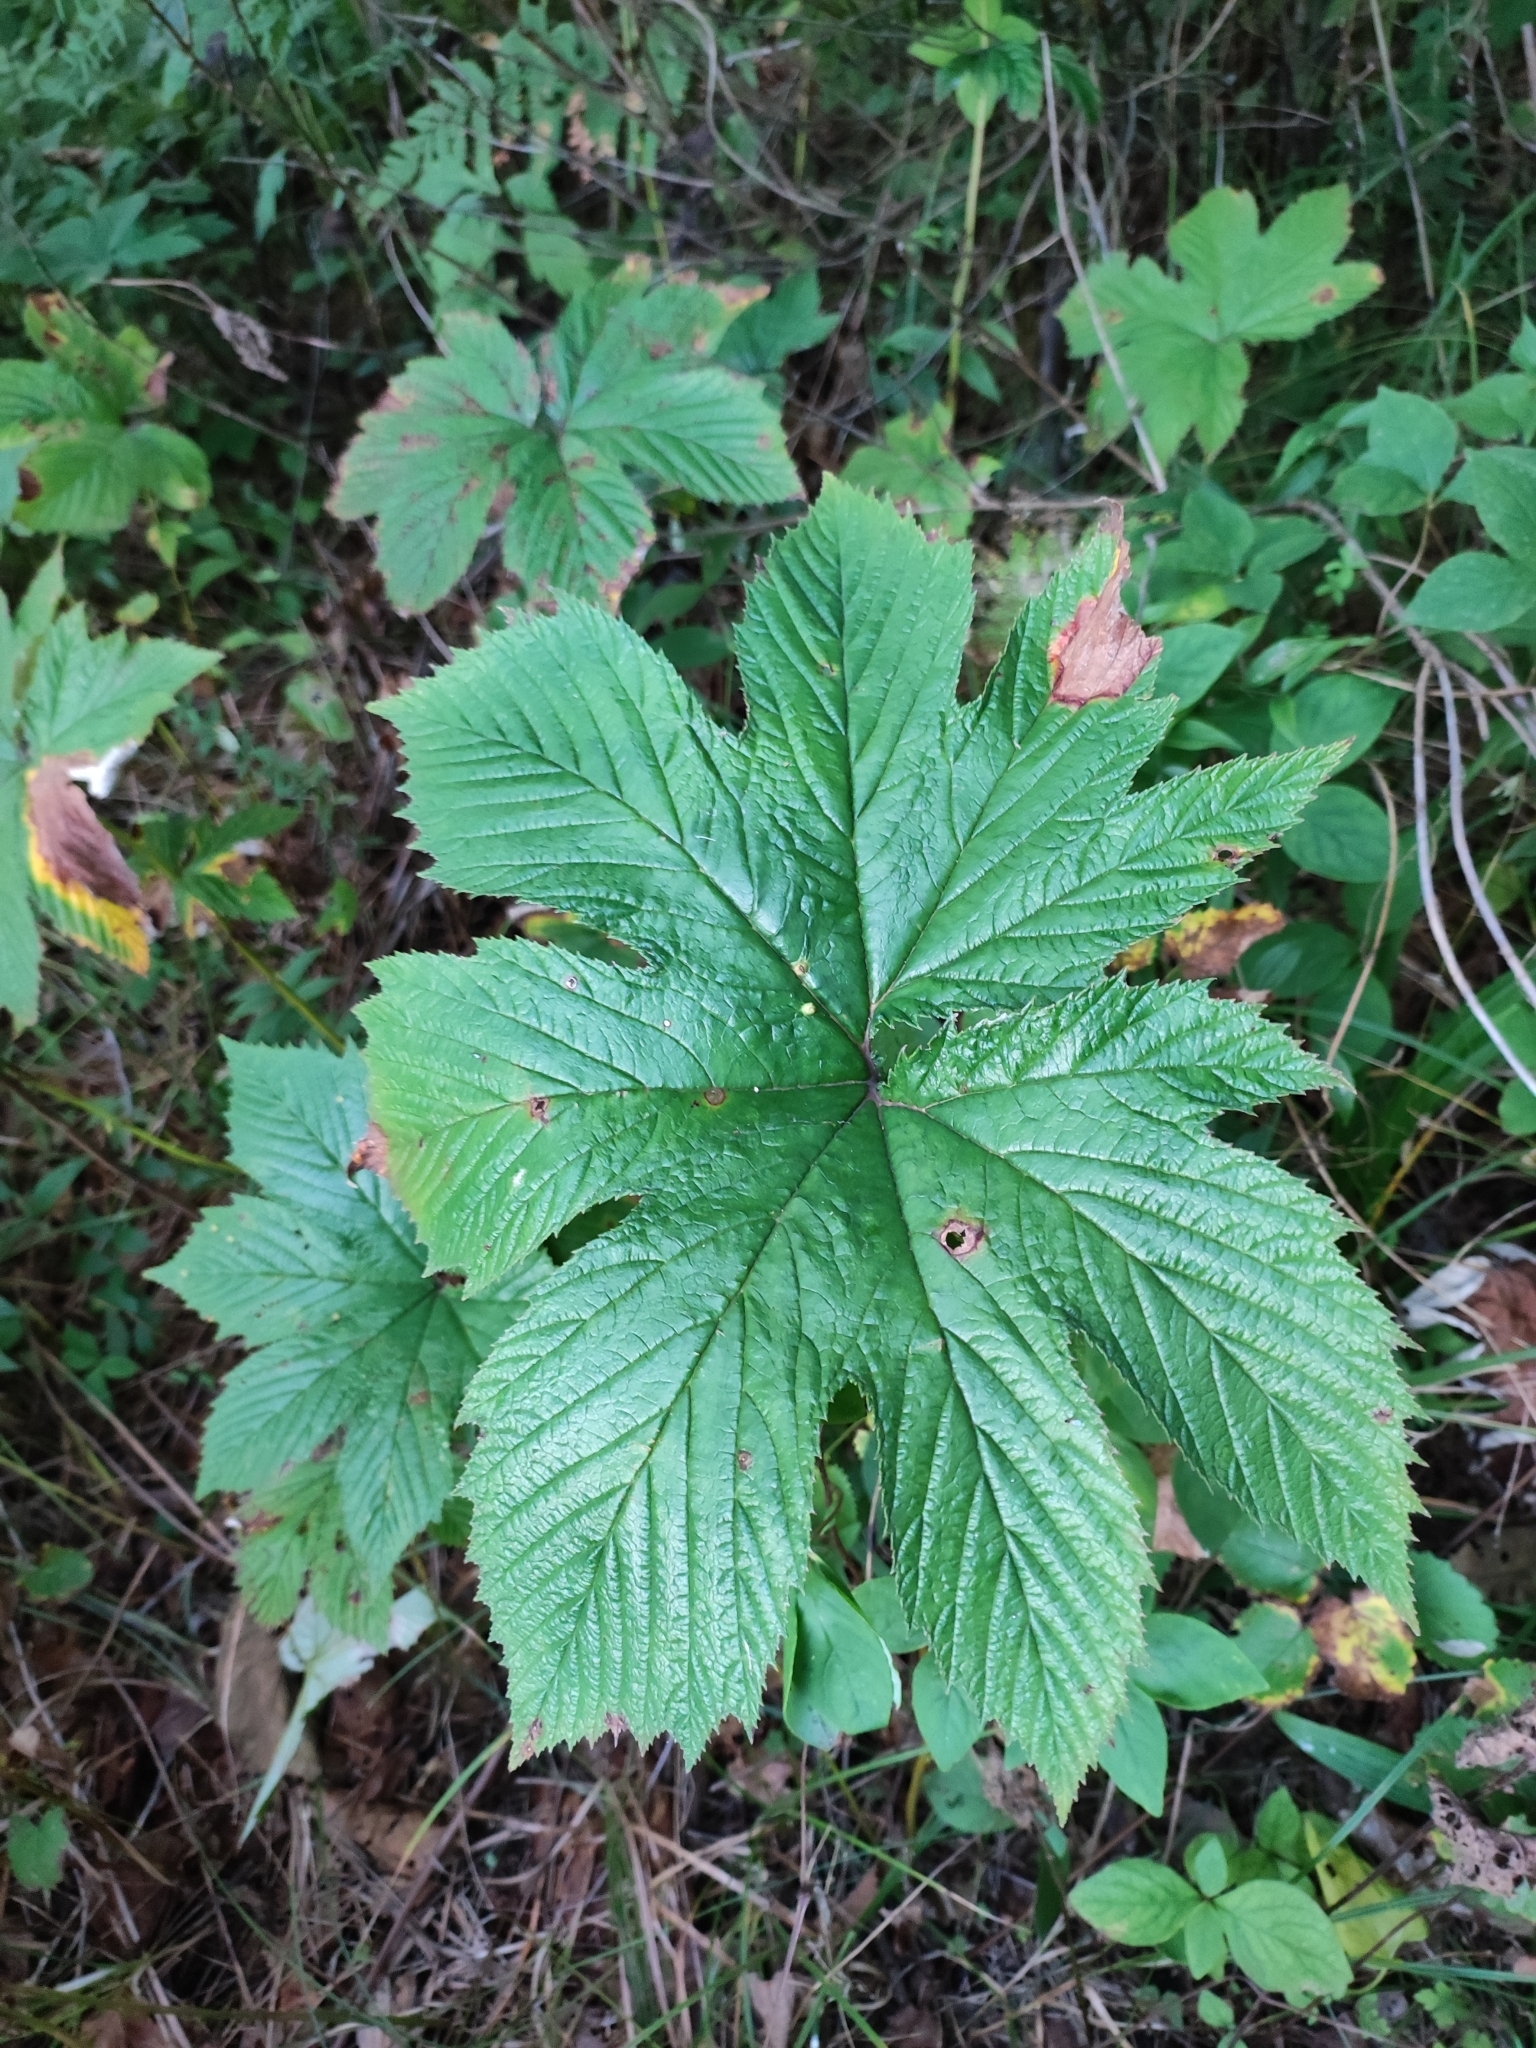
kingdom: Plantae
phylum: Tracheophyta
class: Magnoliopsida
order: Rosales
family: Rosaceae
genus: Filipendula
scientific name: Filipendula digitata
